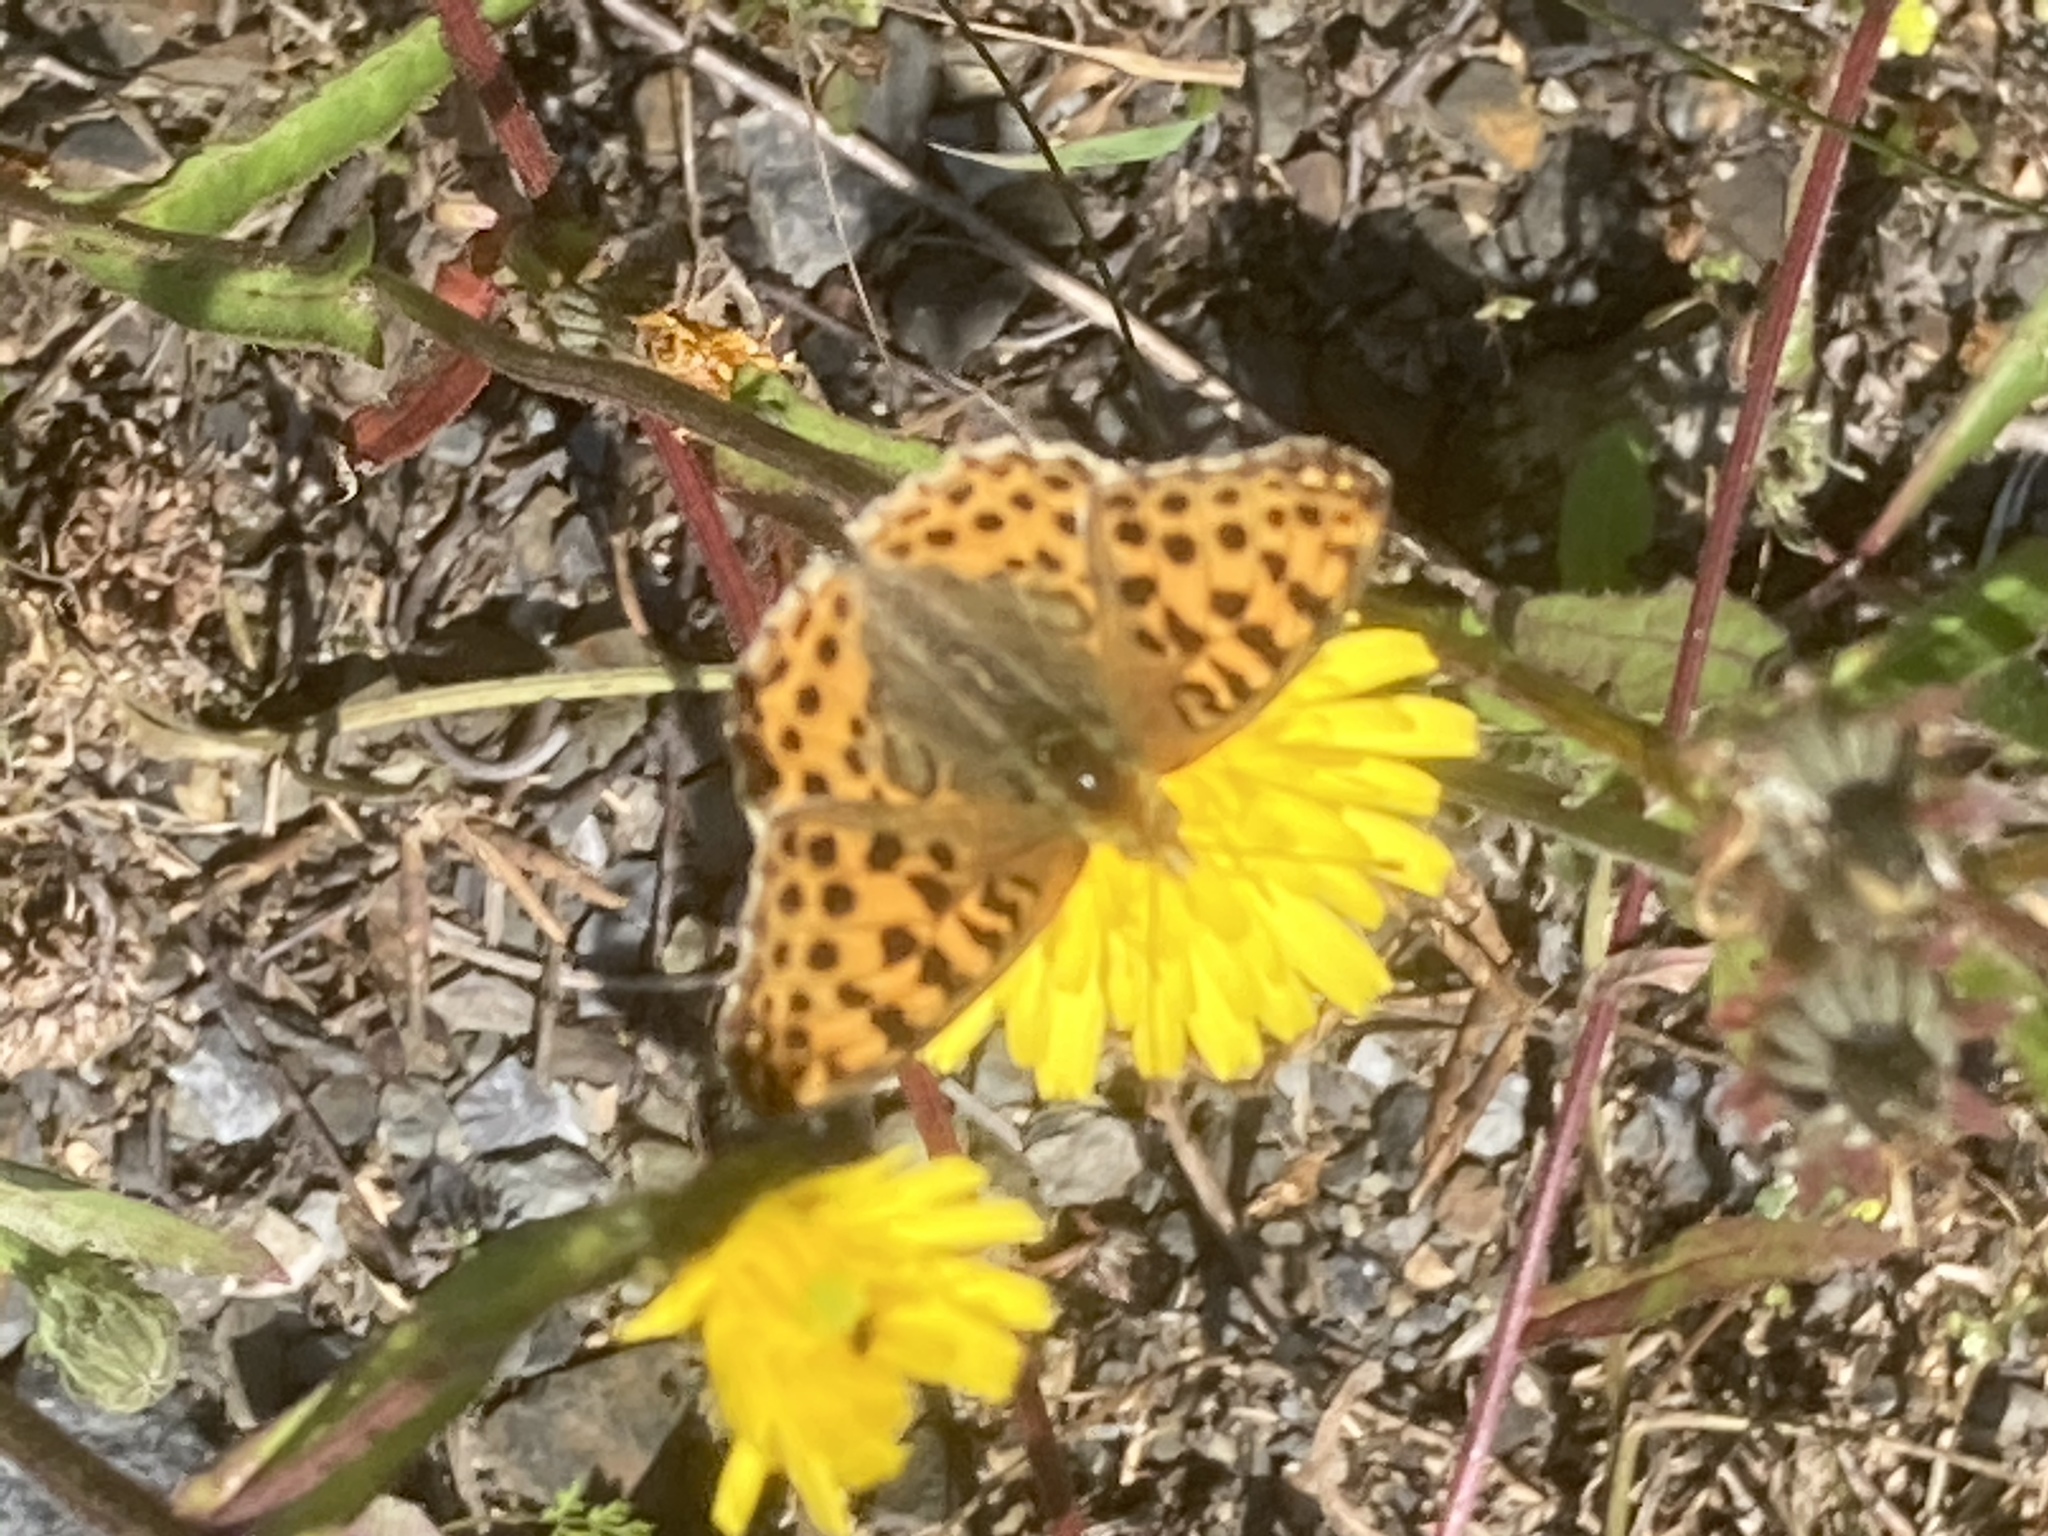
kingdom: Animalia
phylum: Arthropoda
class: Insecta
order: Lepidoptera
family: Nymphalidae
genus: Issoria
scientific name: Issoria lathonia
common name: Queen of spain fritillary
